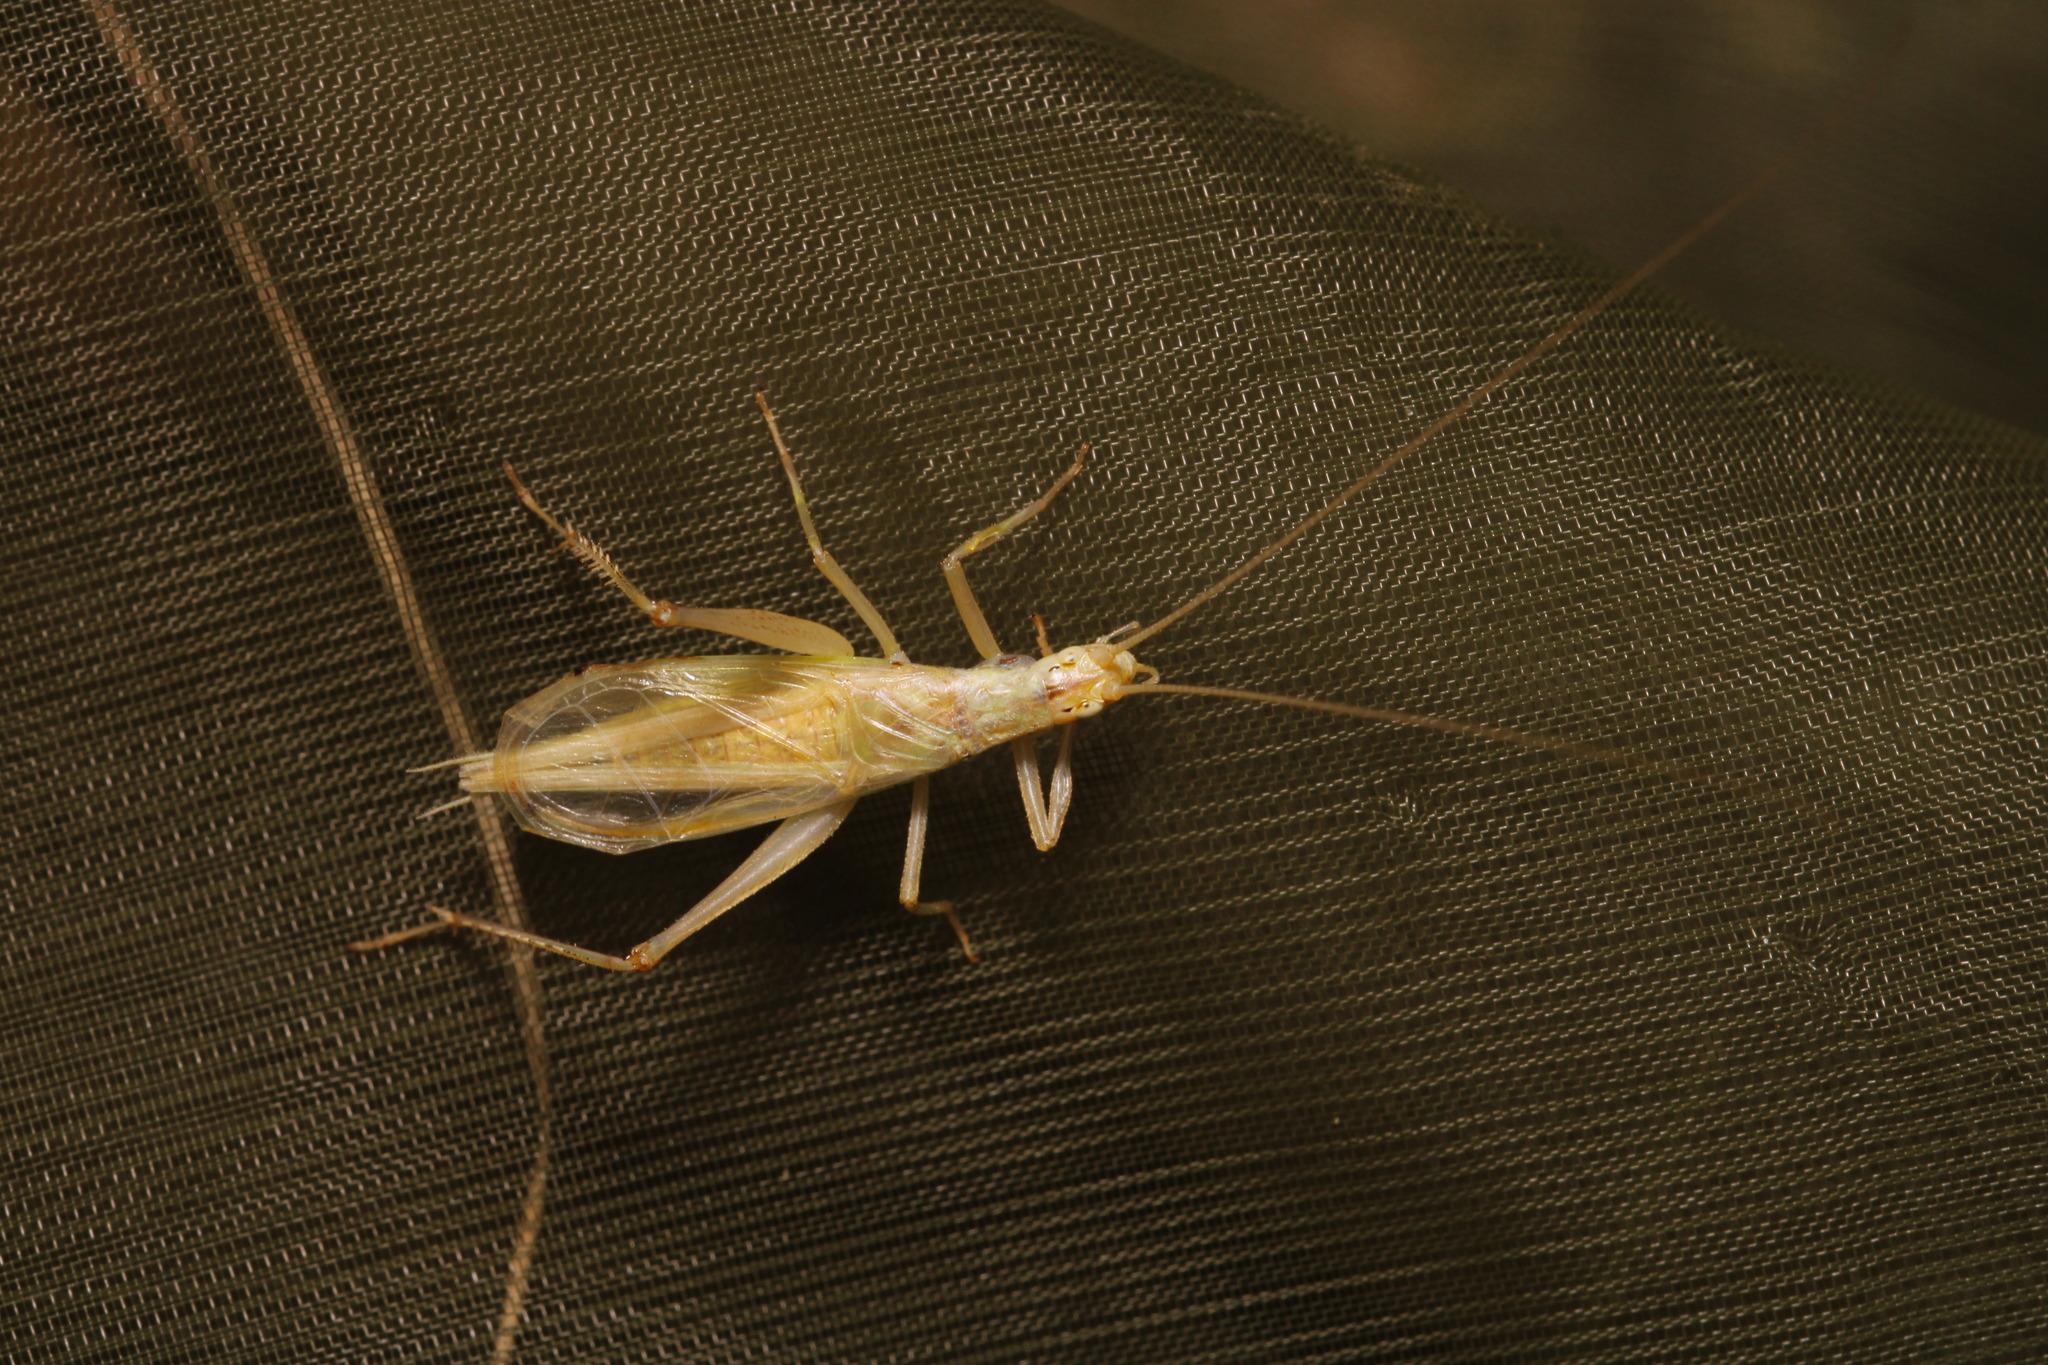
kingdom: Animalia
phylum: Arthropoda
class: Insecta
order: Orthoptera
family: Gryllidae
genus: Oecanthus
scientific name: Oecanthus pellucens
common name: Tree-cricket
